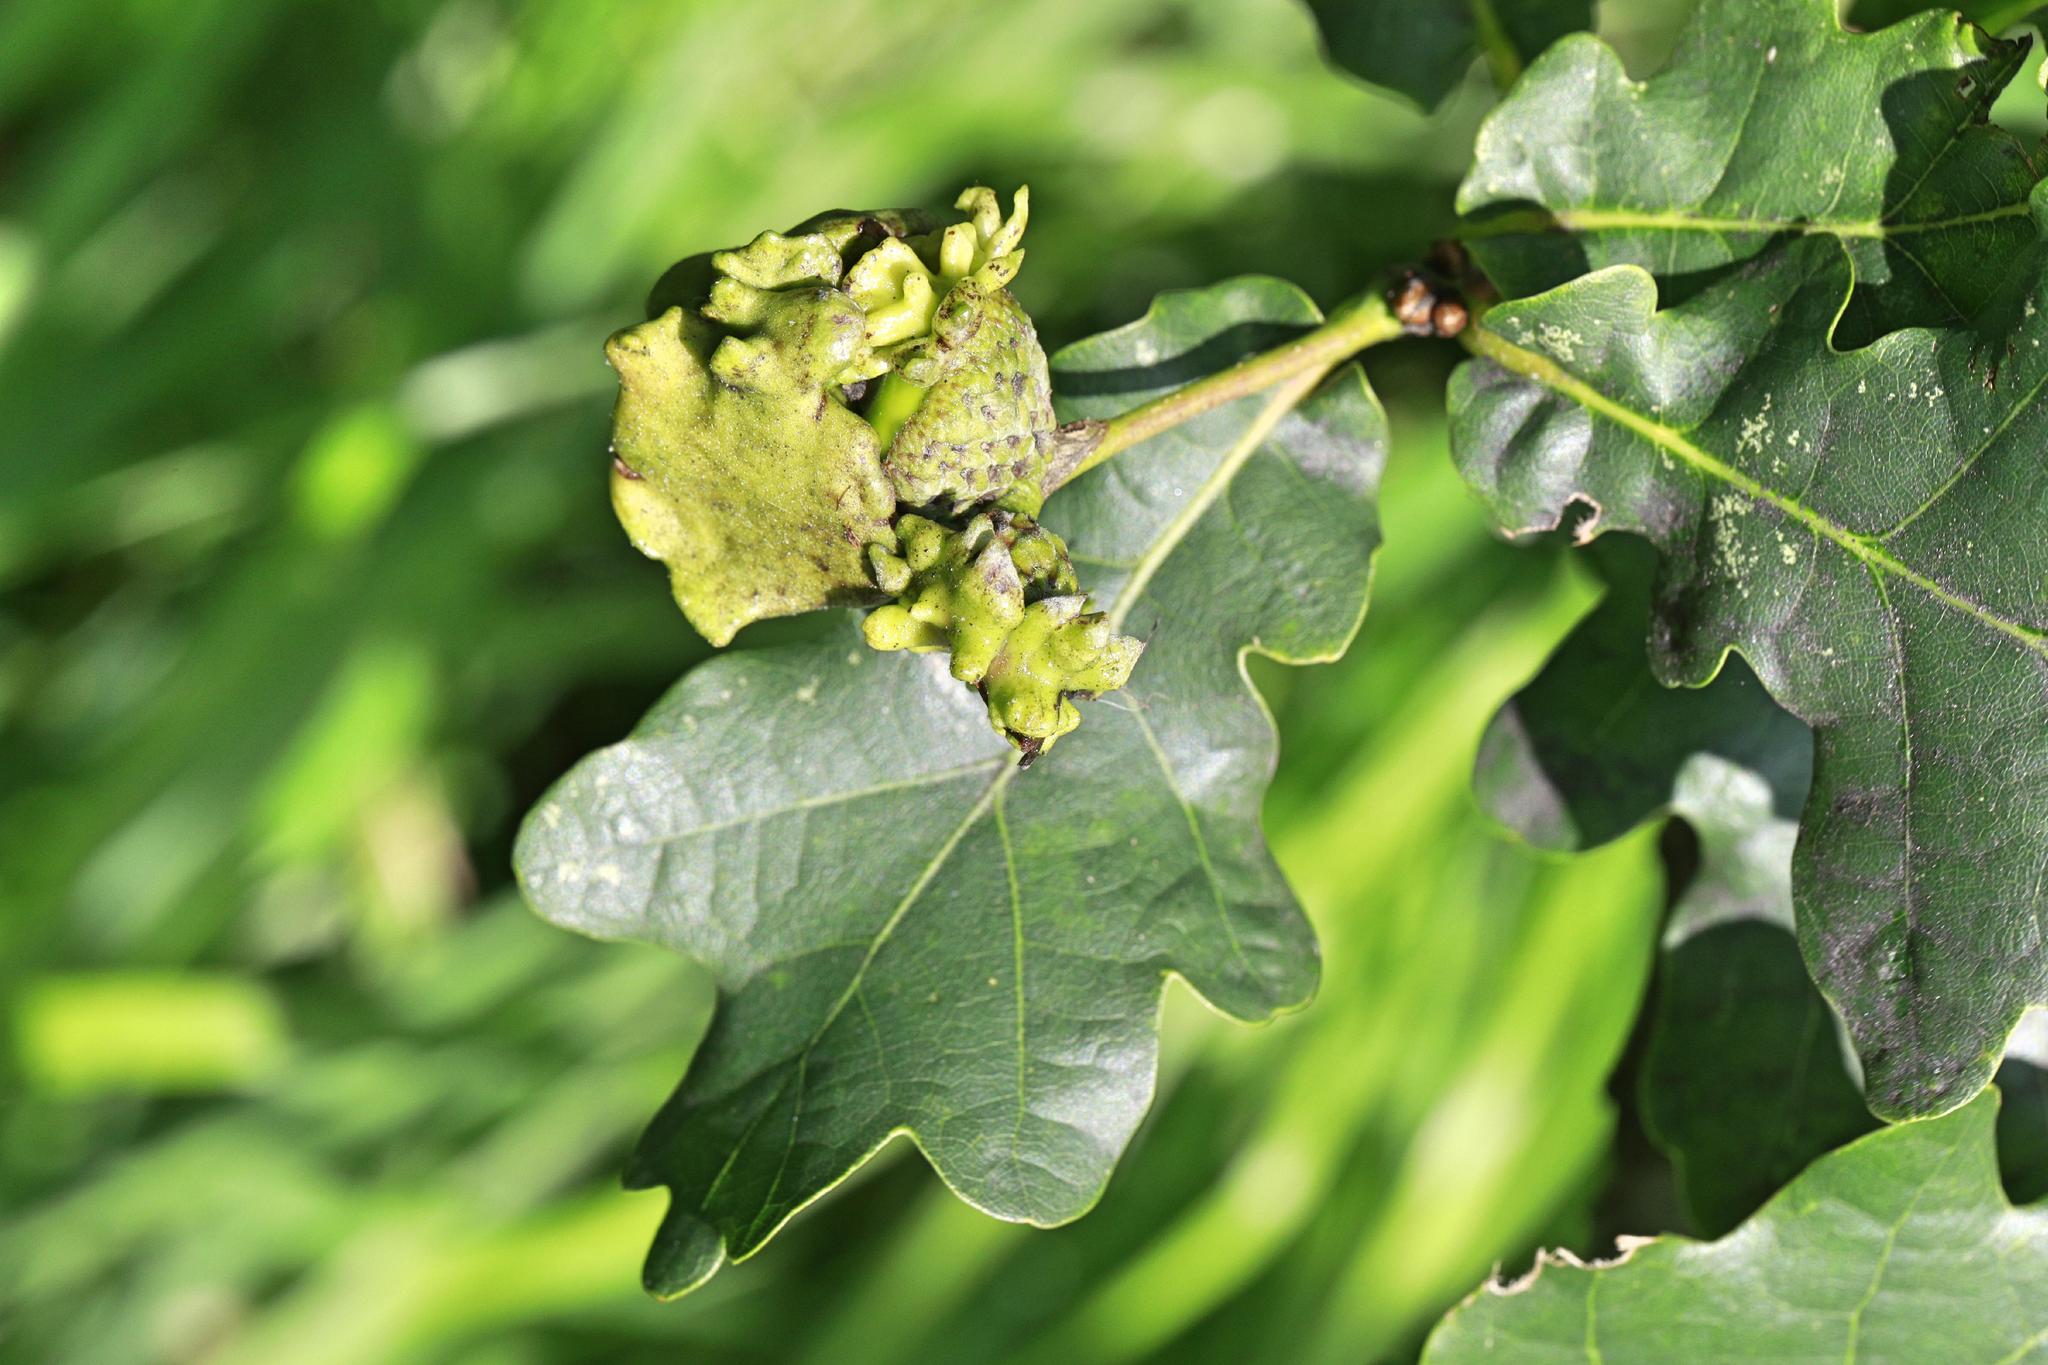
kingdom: Animalia
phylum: Arthropoda
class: Insecta
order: Hymenoptera
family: Cynipidae
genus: Andricus
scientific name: Andricus quercuscalicis
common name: Knopper gall
